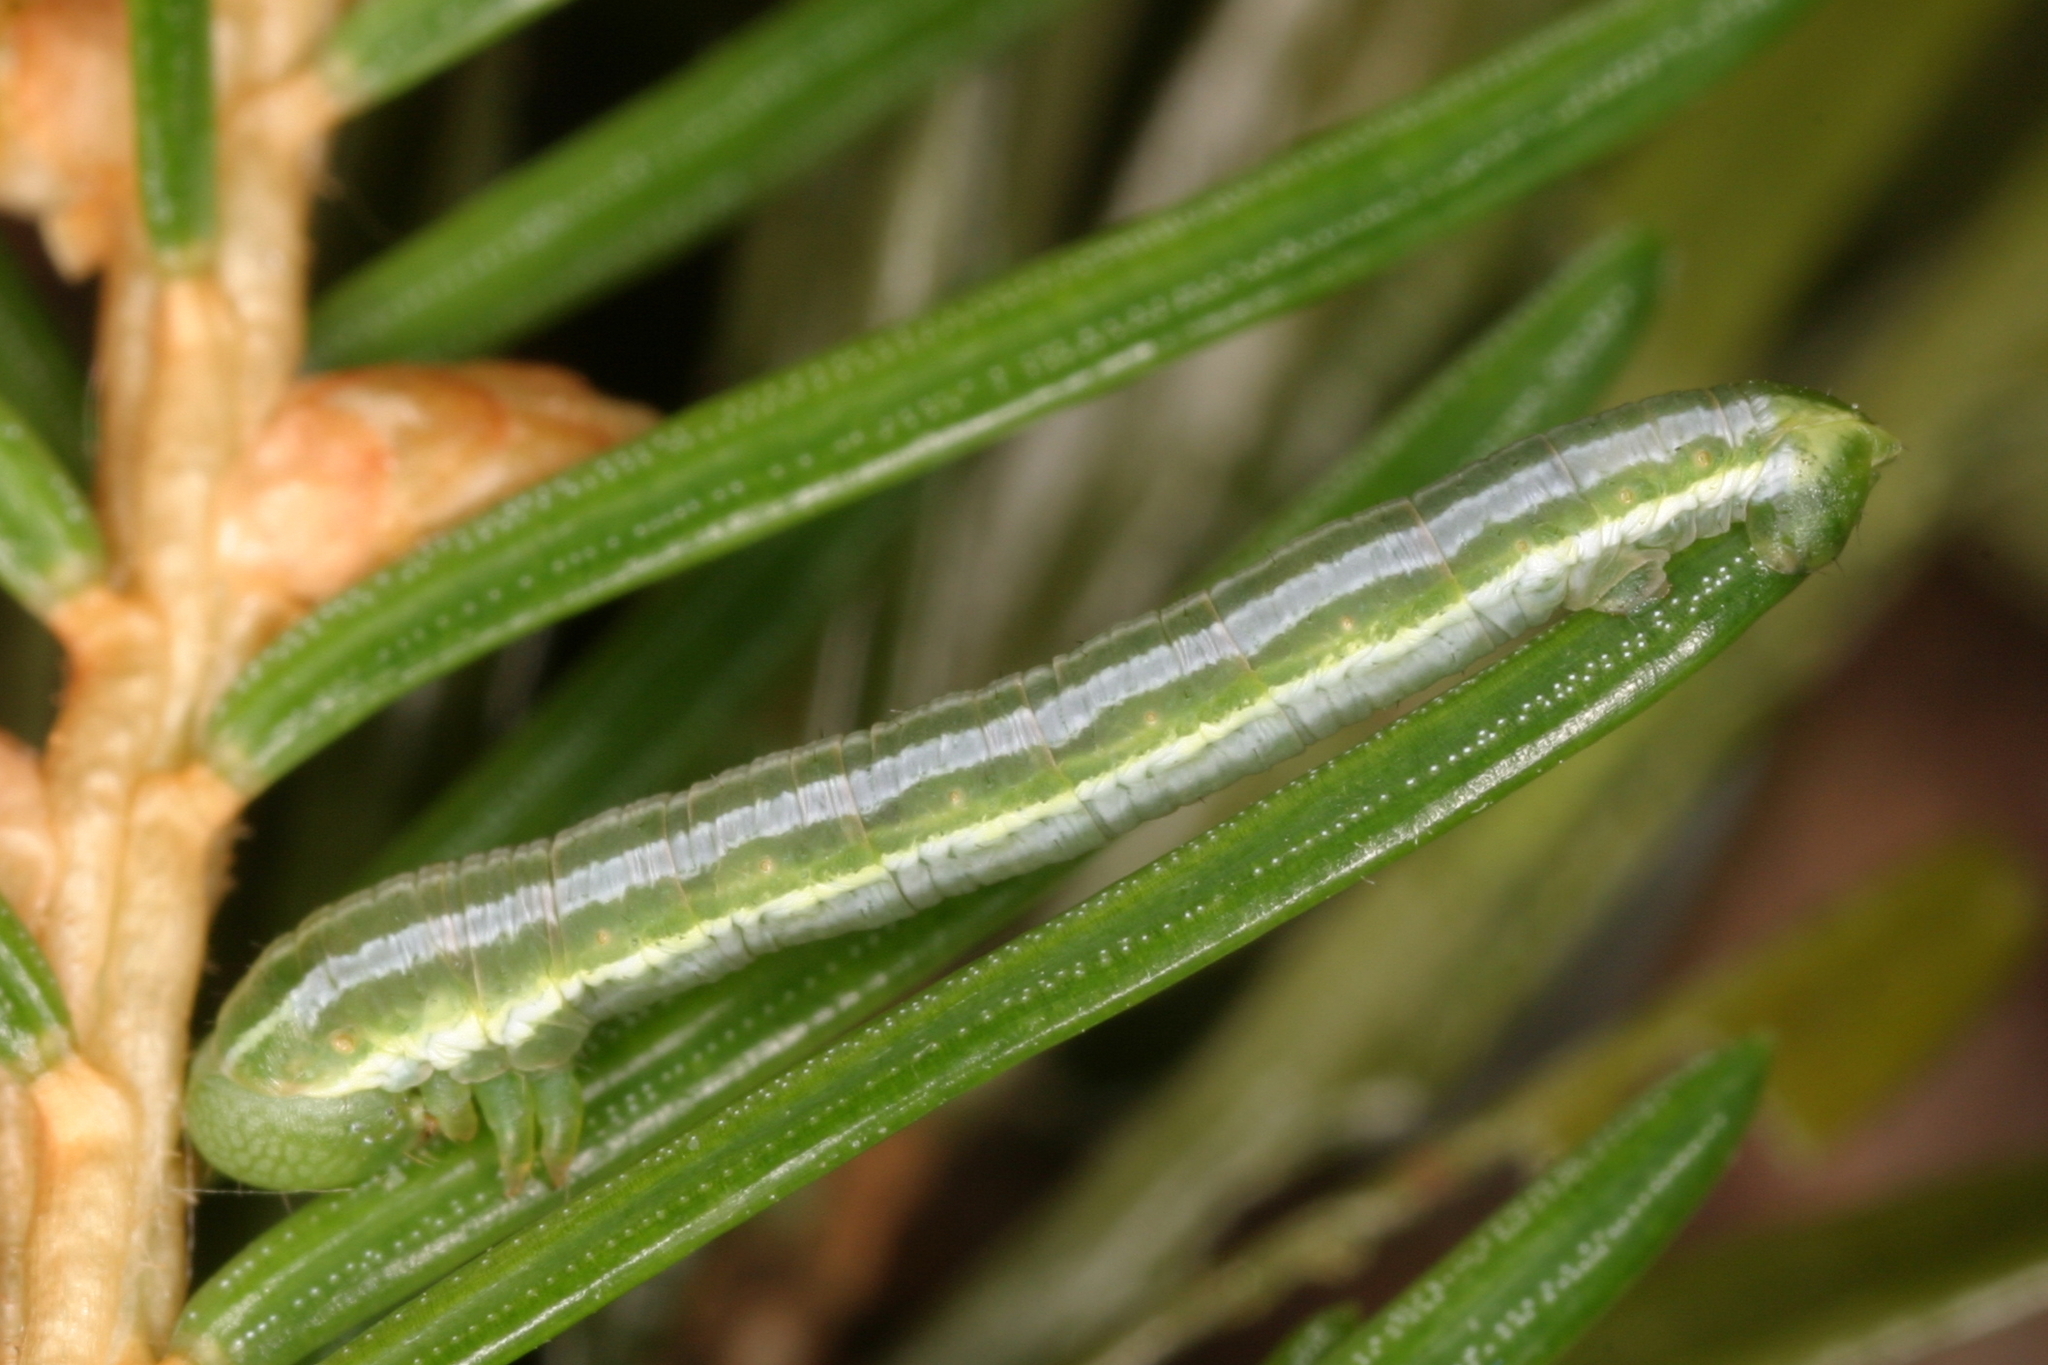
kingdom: Animalia
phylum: Arthropoda
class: Insecta
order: Lepidoptera
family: Geometridae
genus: Thera
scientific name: Thera variata
